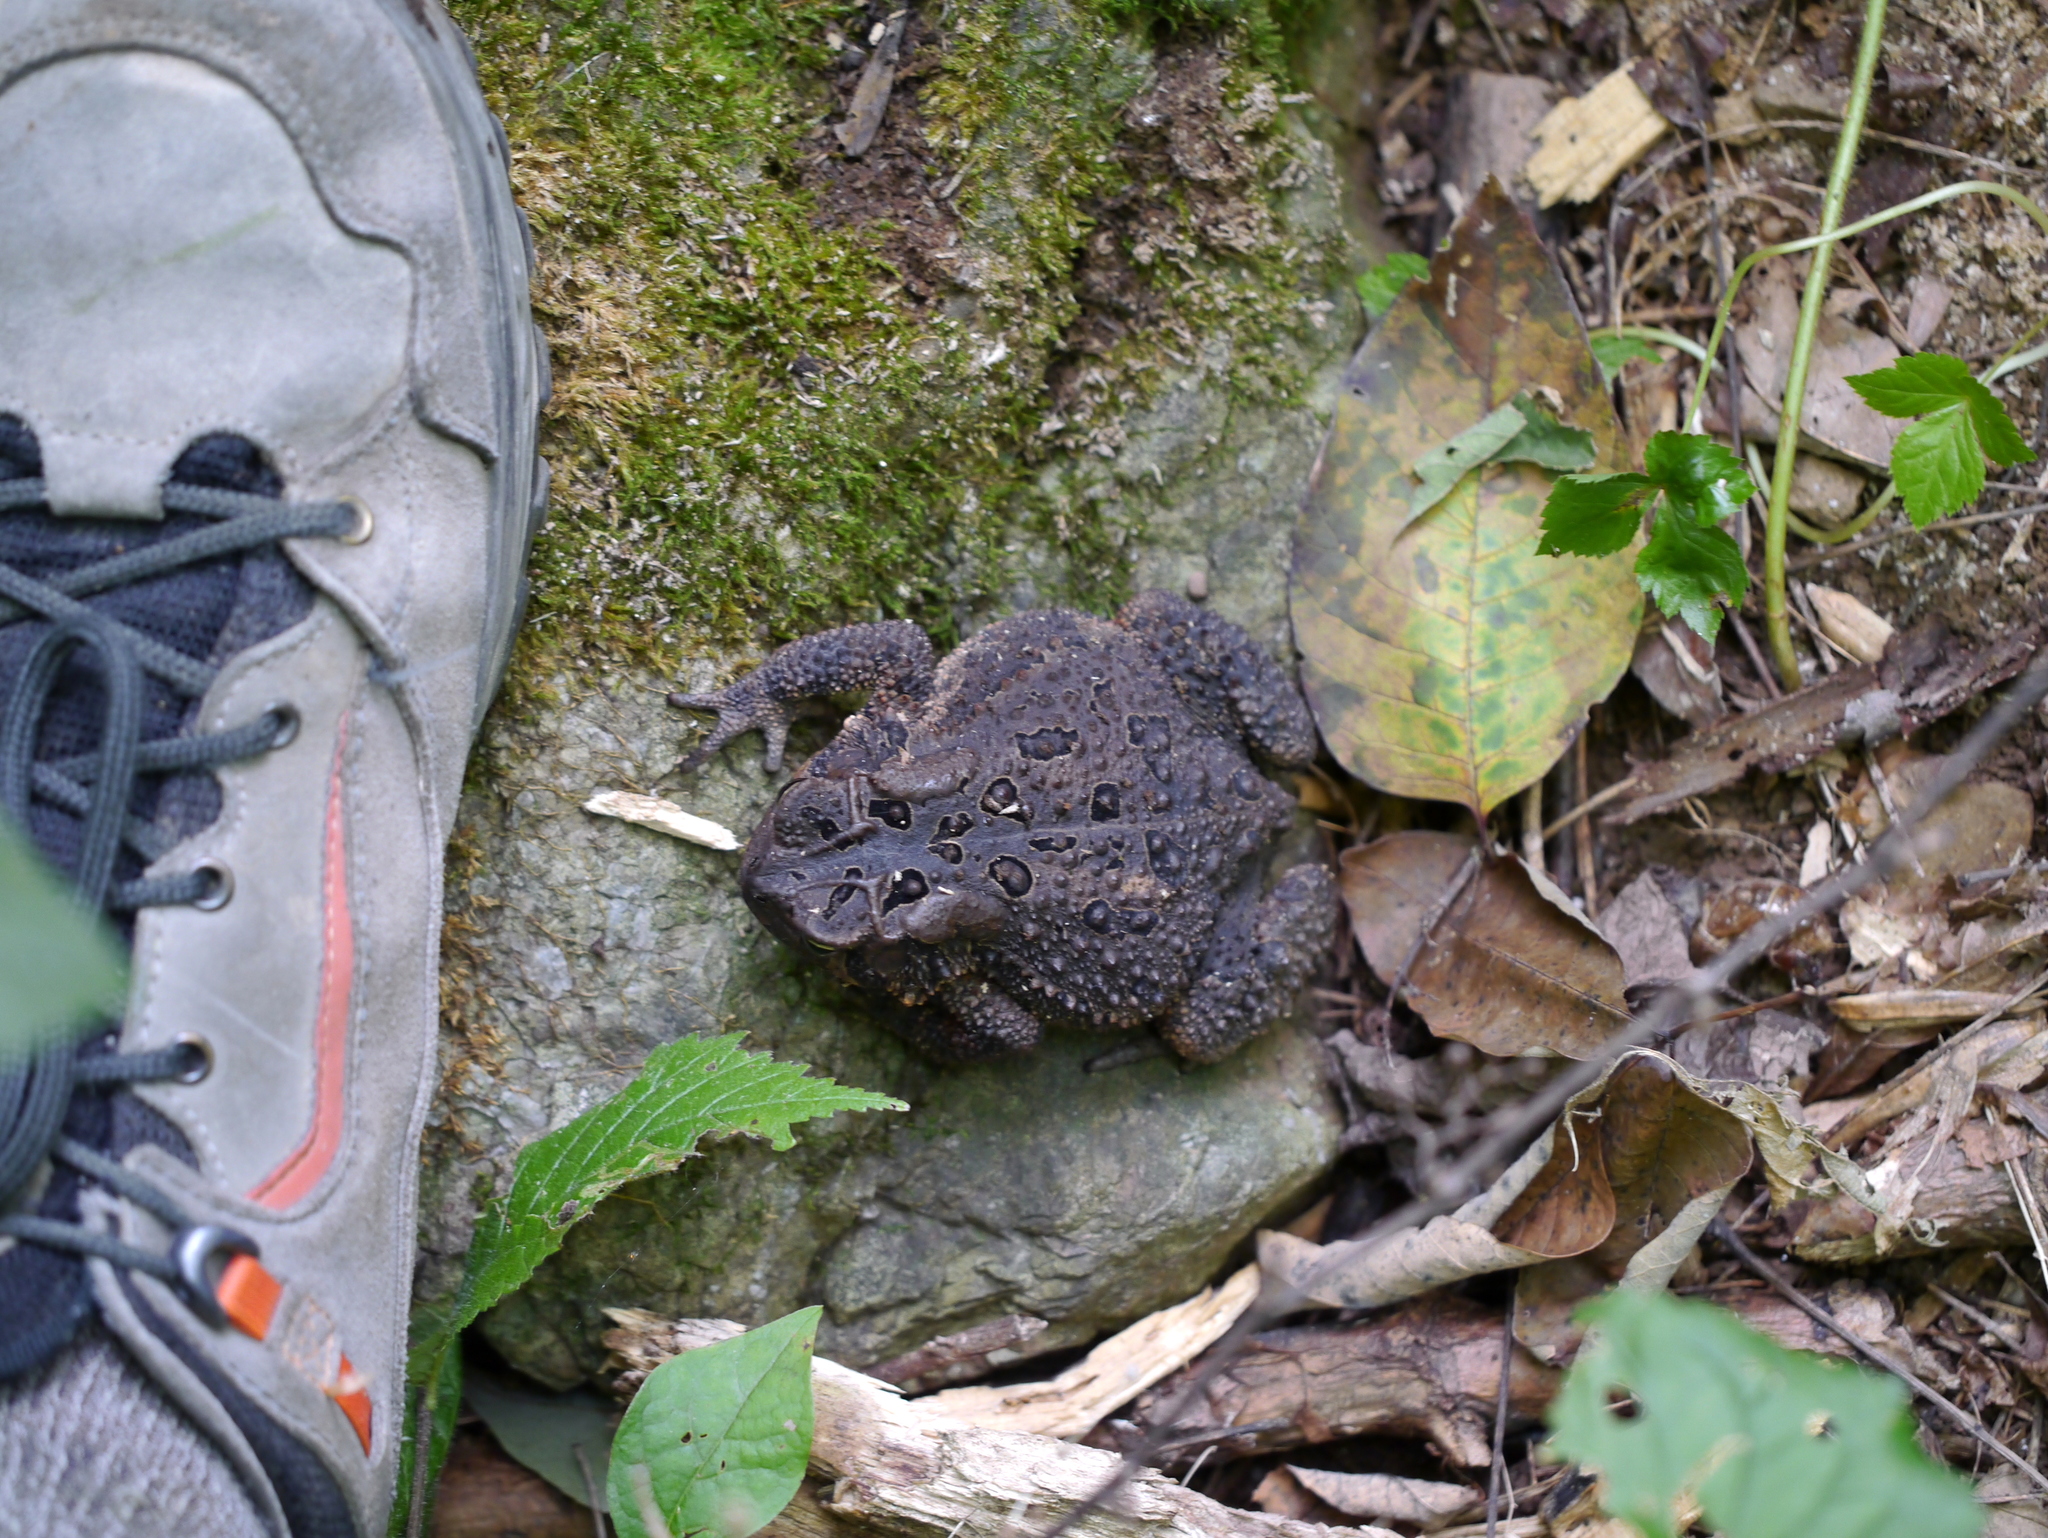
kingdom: Animalia
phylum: Chordata
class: Amphibia
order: Anura
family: Bufonidae
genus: Anaxyrus
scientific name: Anaxyrus americanus
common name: American toad
